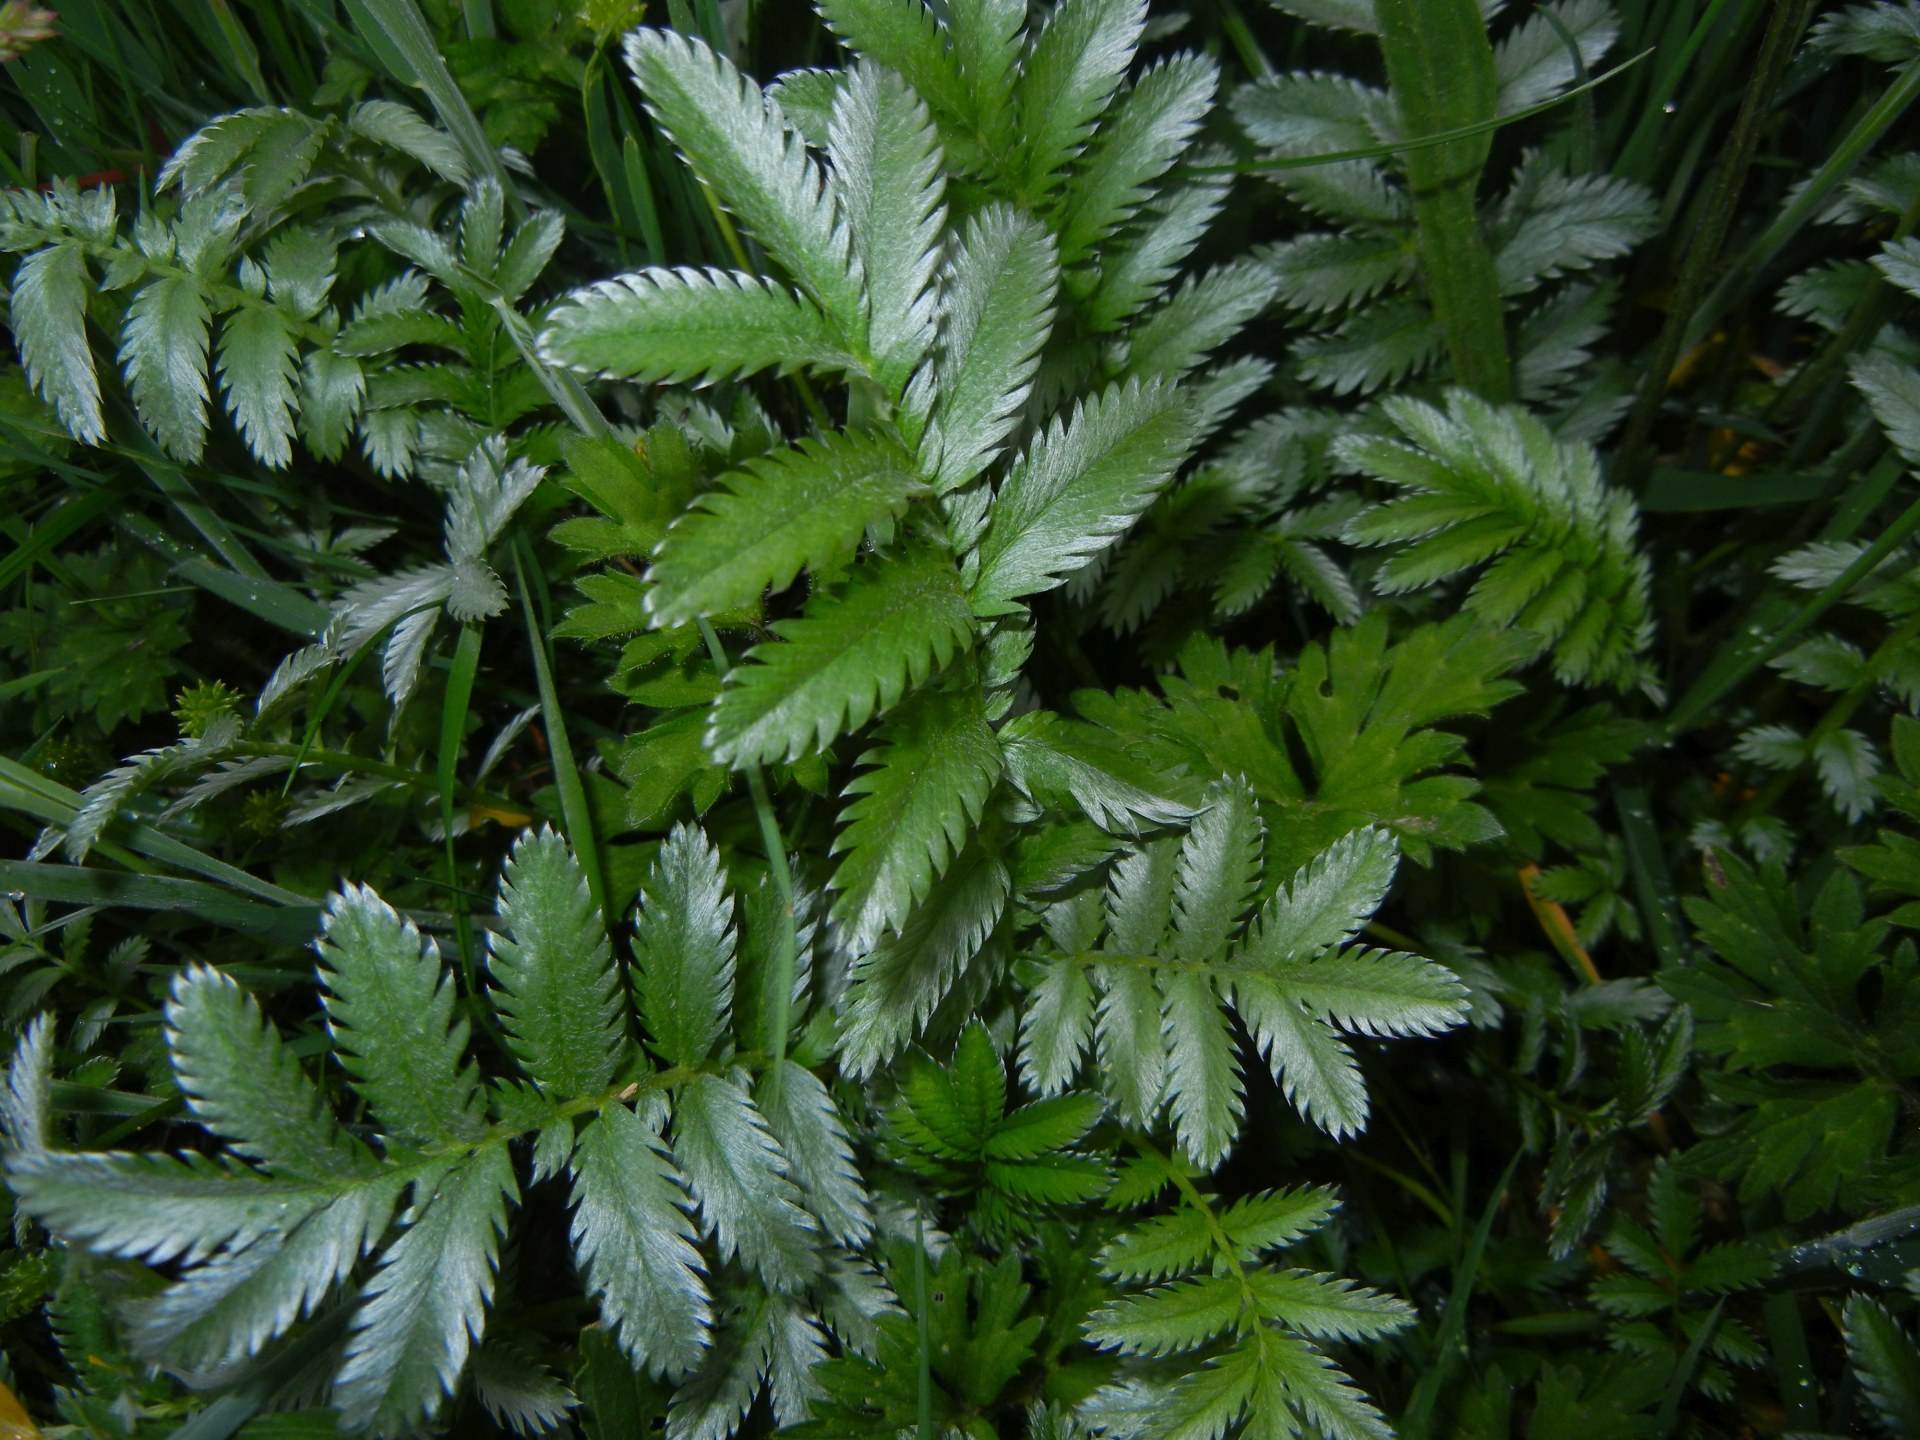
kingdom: Plantae
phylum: Tracheophyta
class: Magnoliopsida
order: Rosales
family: Rosaceae
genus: Argentina
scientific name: Argentina anserina
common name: Common silverweed
